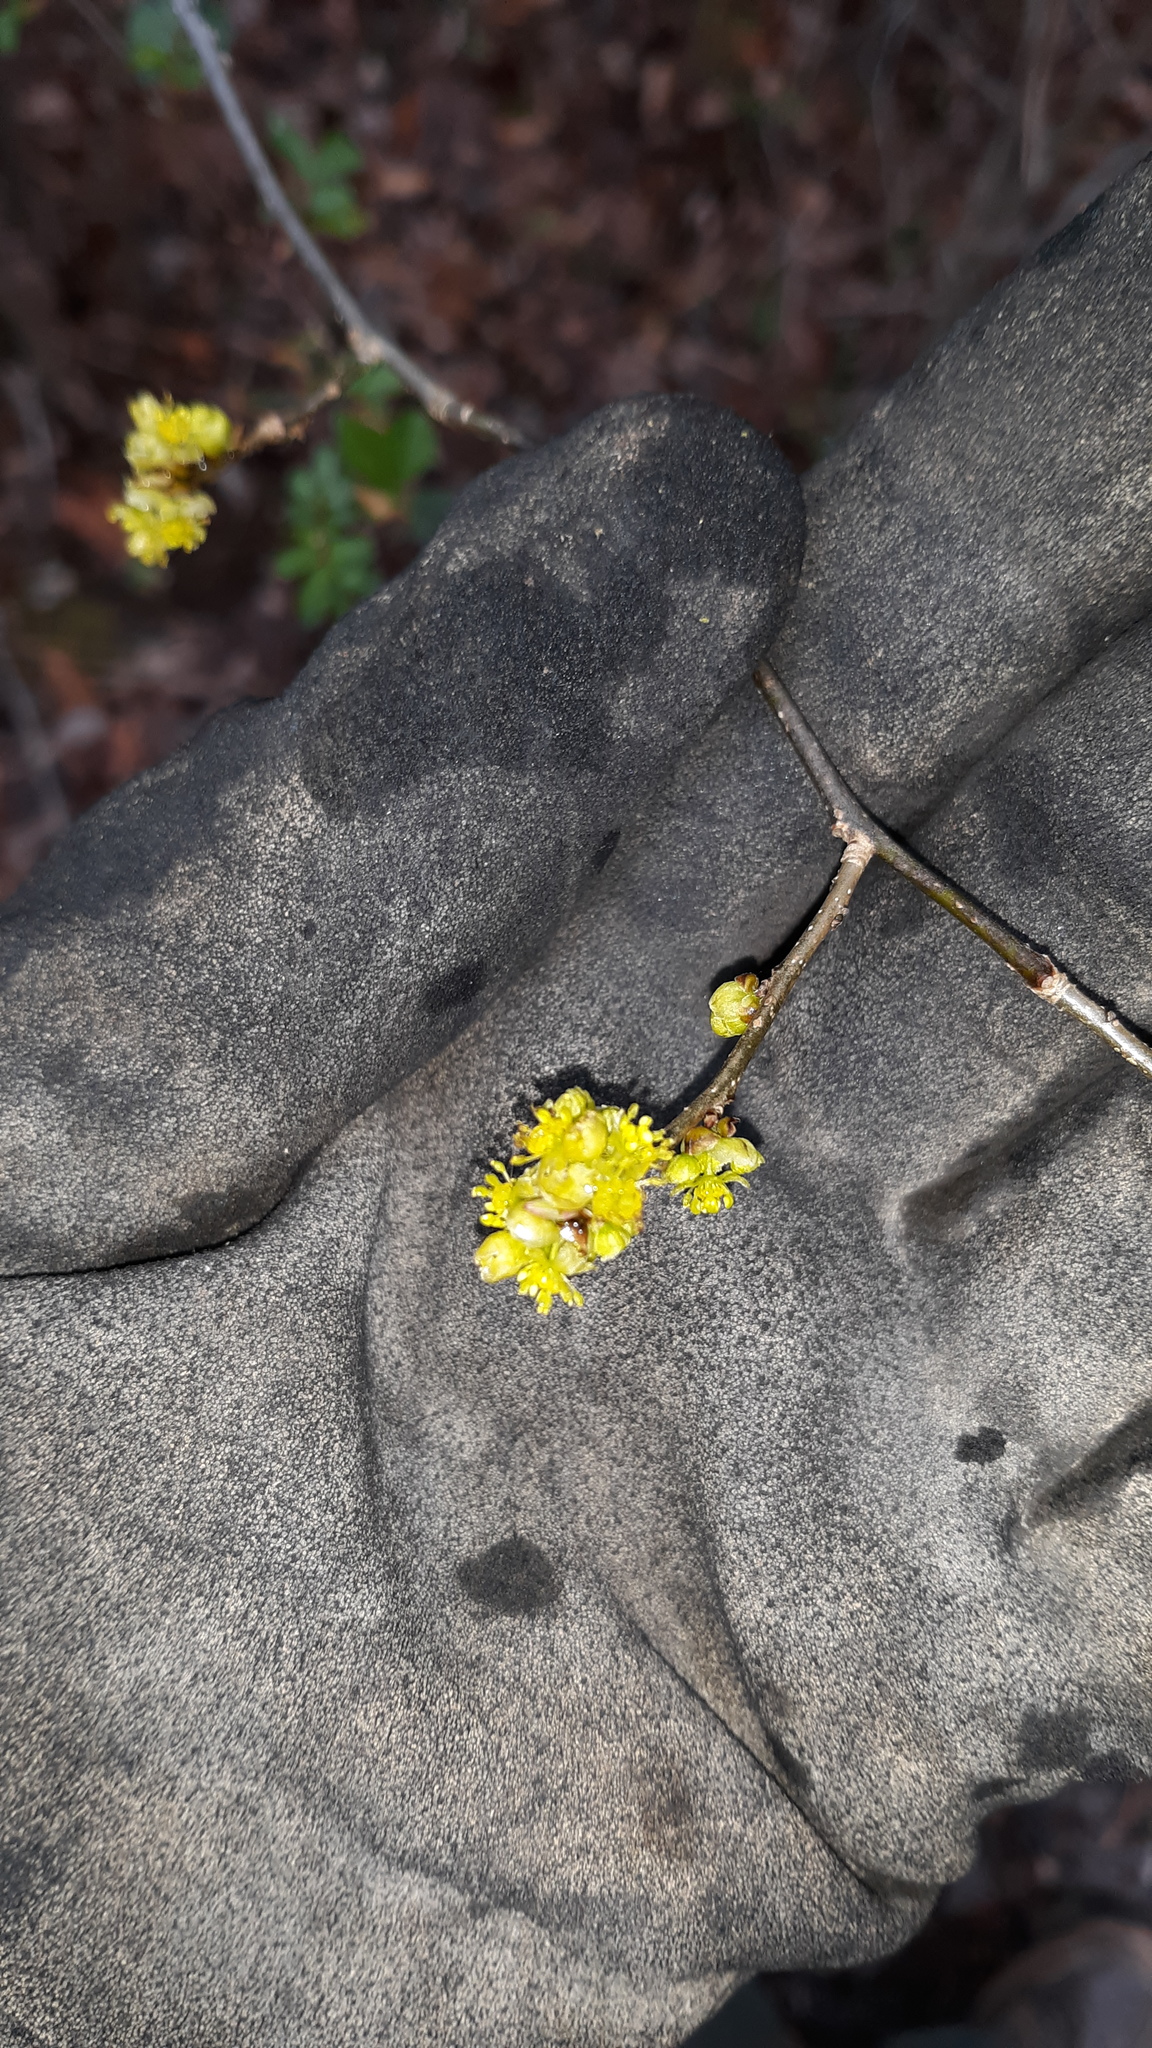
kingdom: Plantae
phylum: Tracheophyta
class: Magnoliopsida
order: Laurales
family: Lauraceae
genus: Lindera
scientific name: Lindera benzoin
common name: Spicebush
